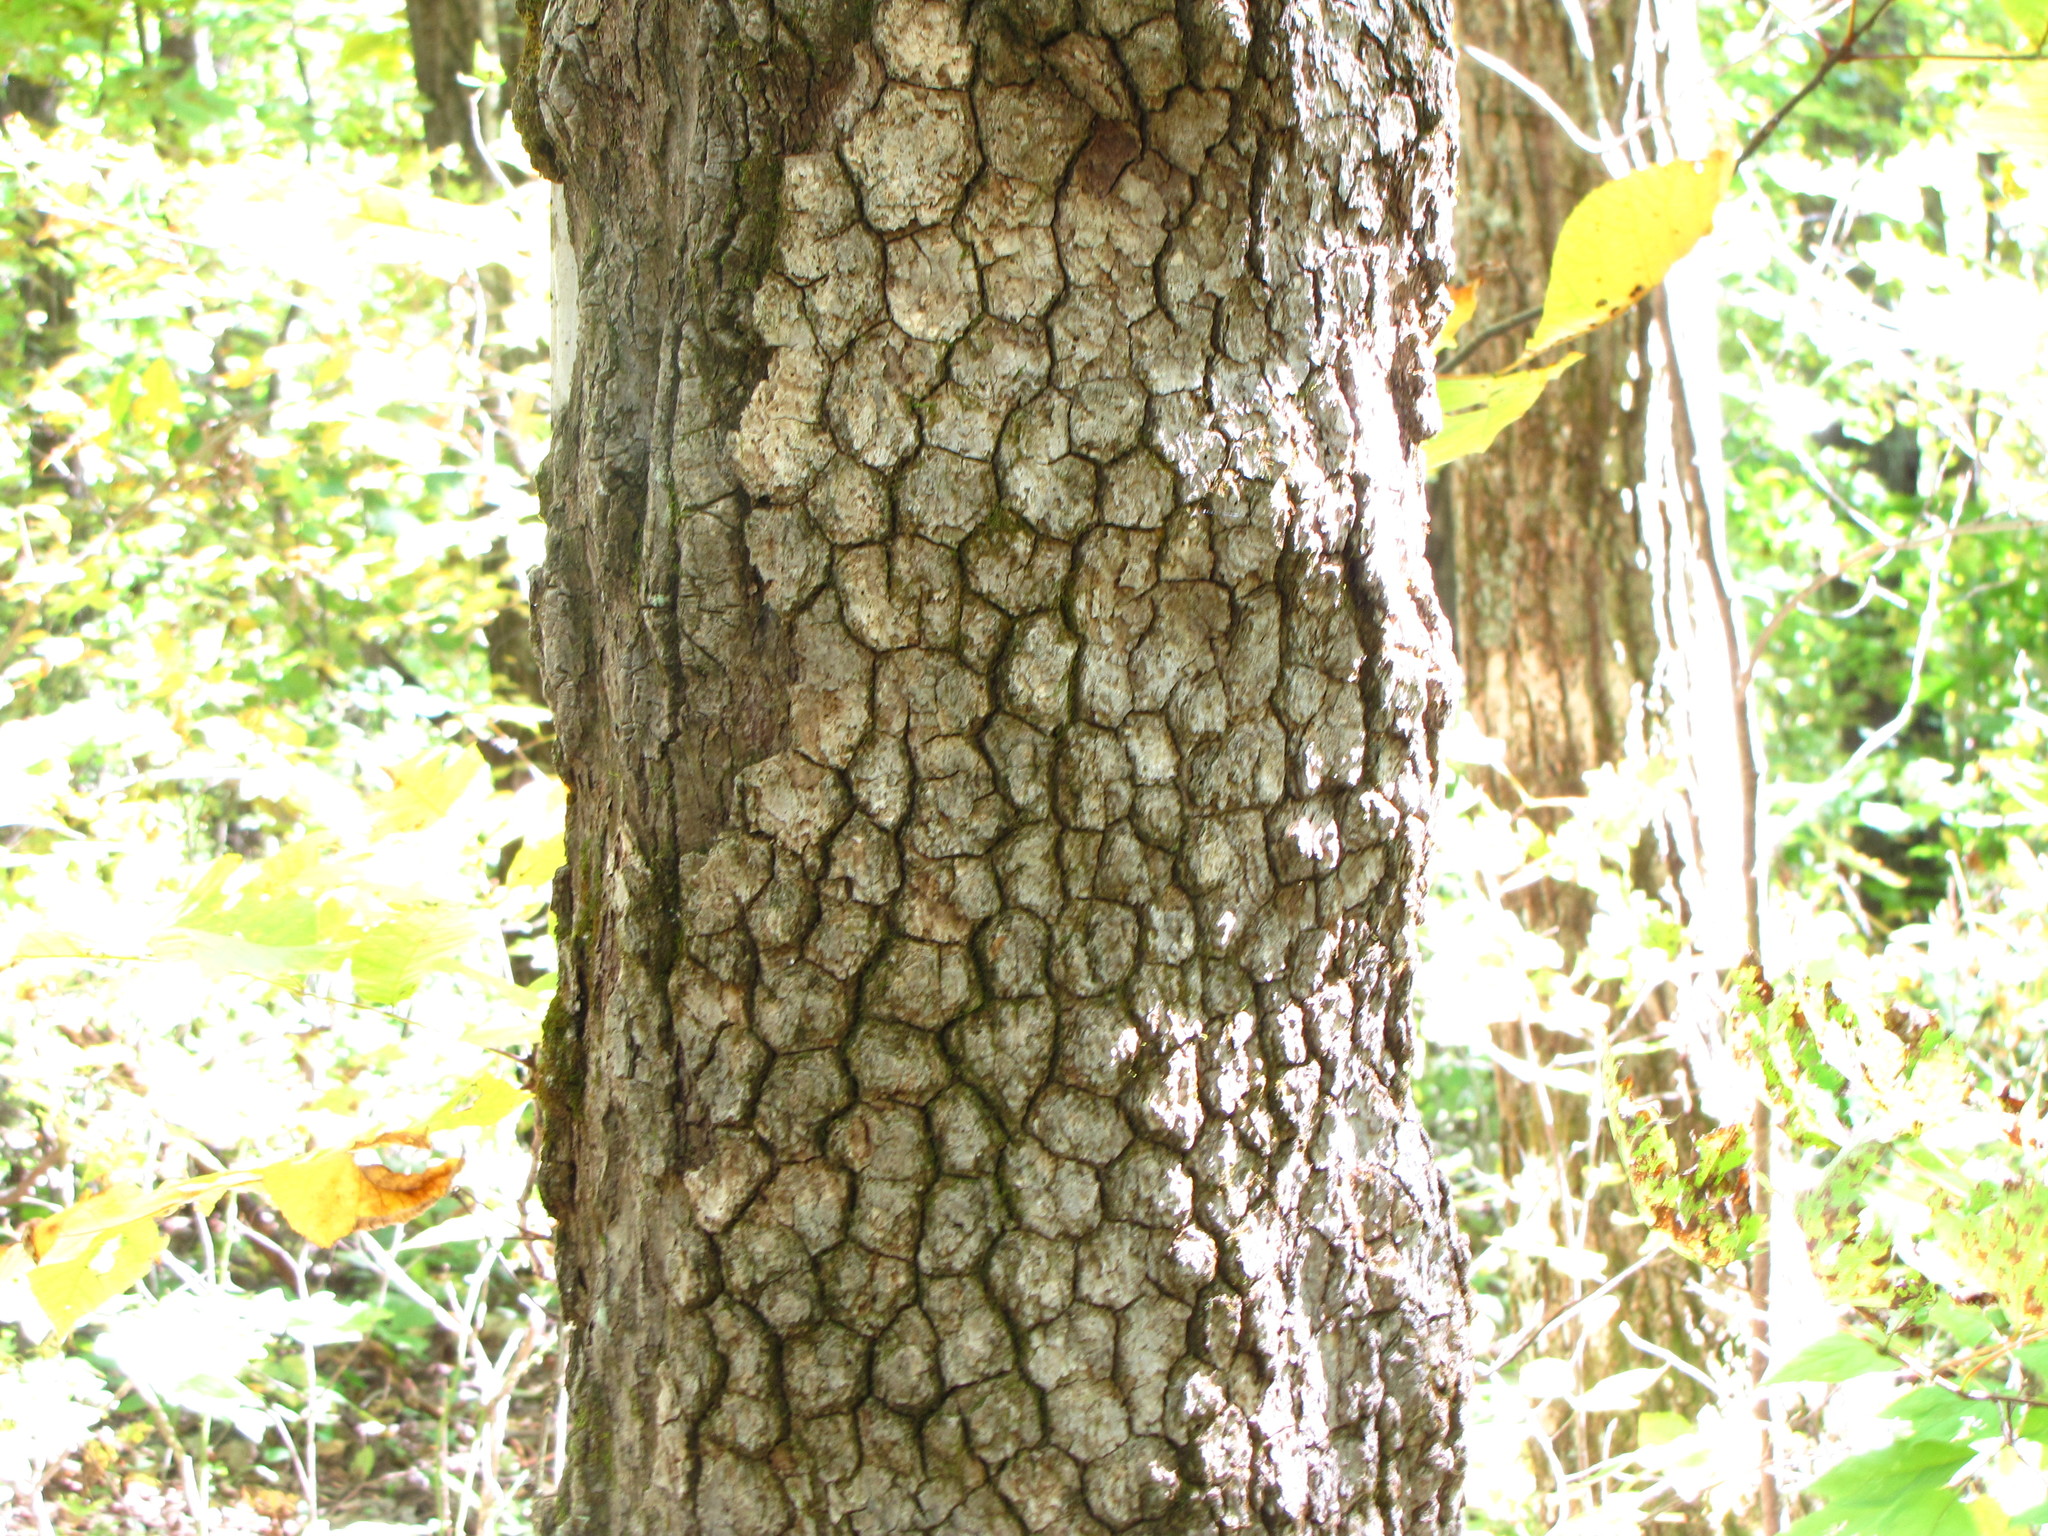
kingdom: Plantae
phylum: Tracheophyta
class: Magnoliopsida
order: Ericales
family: Ebenaceae
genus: Diospyros
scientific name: Diospyros virginiana
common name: Persimmon
